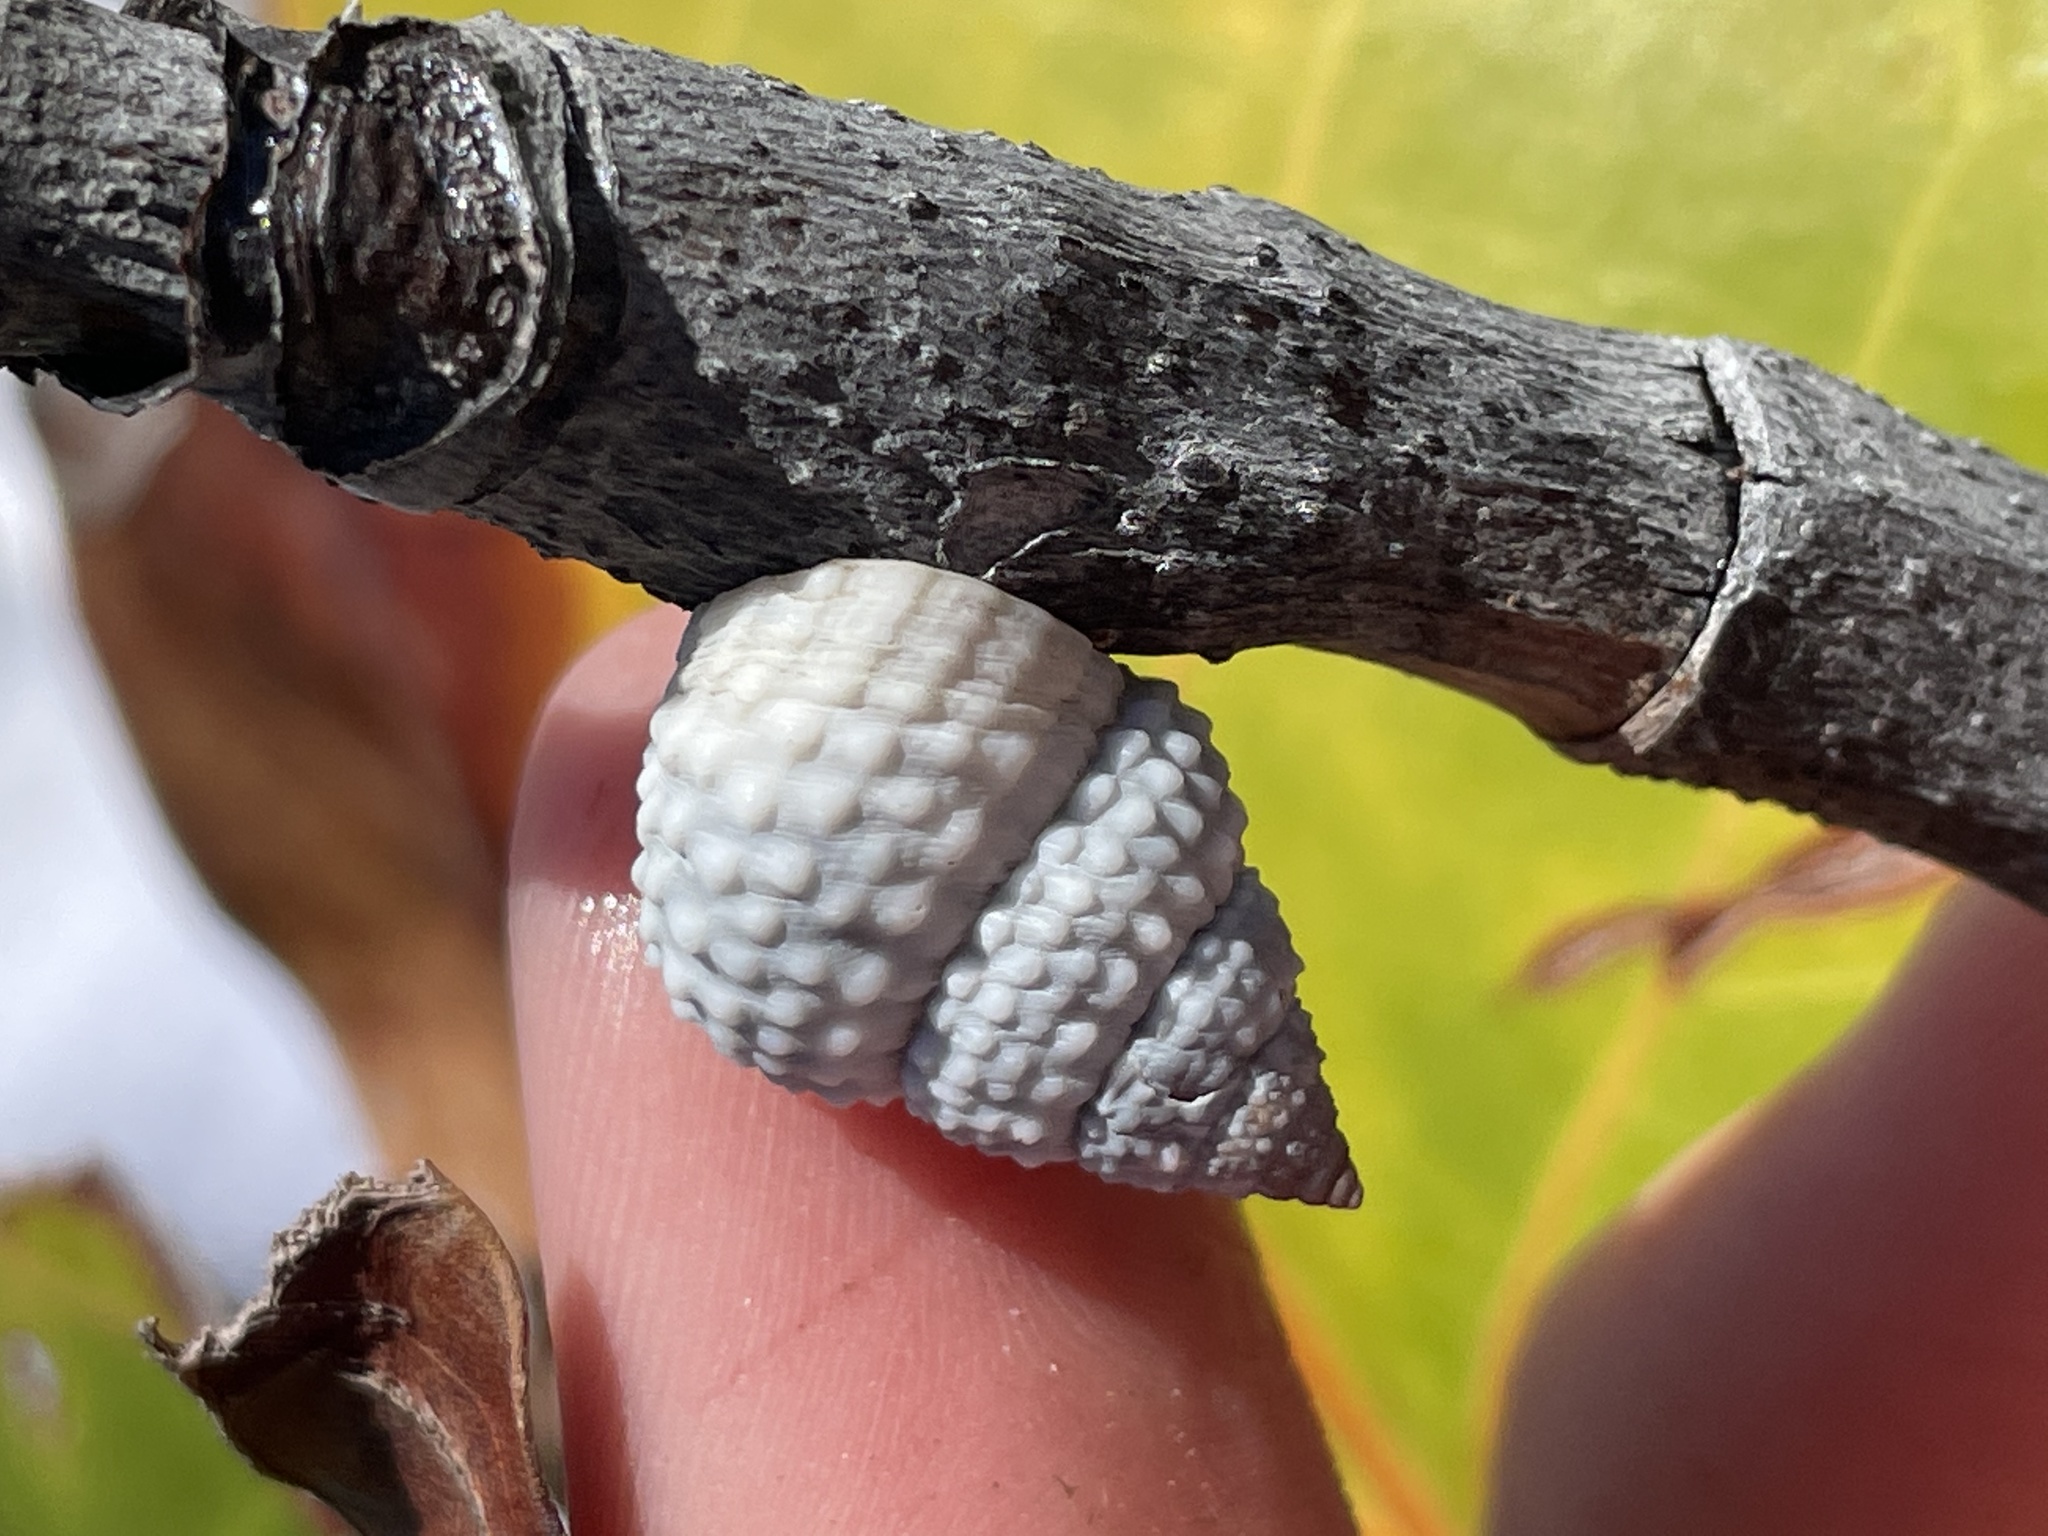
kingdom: Animalia
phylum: Mollusca
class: Gastropoda
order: Littorinimorpha
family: Littorinidae
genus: Cenchritis
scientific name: Cenchritis muricatus
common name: Beaded periwinkle
